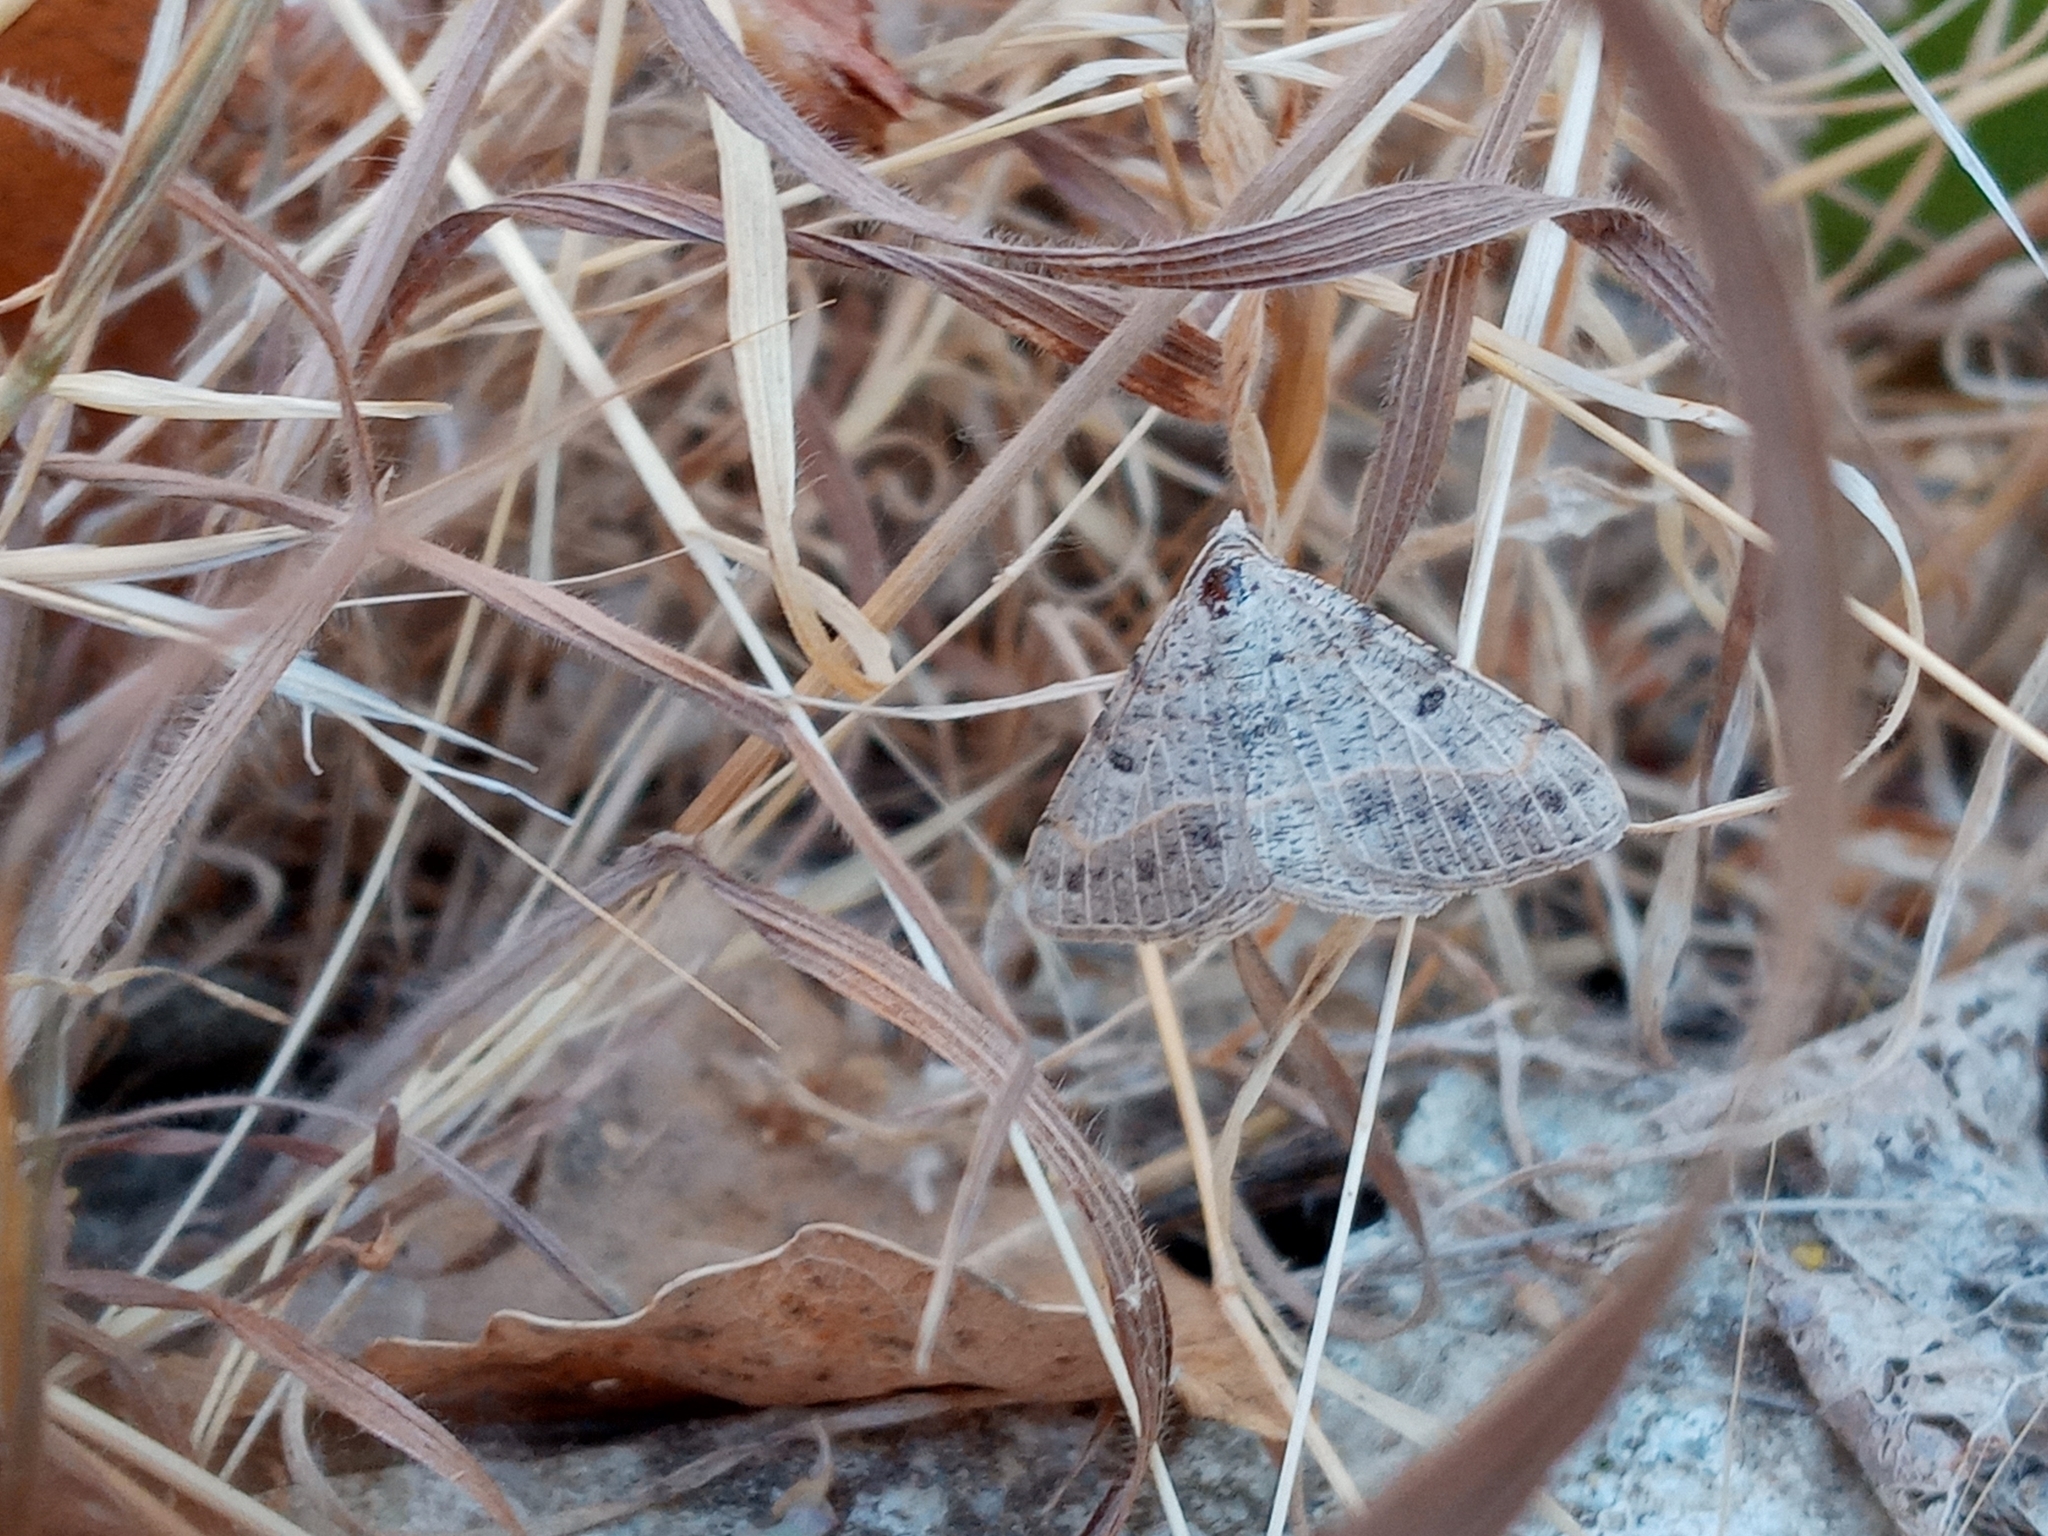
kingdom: Animalia
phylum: Arthropoda
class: Insecta
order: Lepidoptera
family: Geometridae
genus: Digrammia
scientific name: Digrammia irrorata
